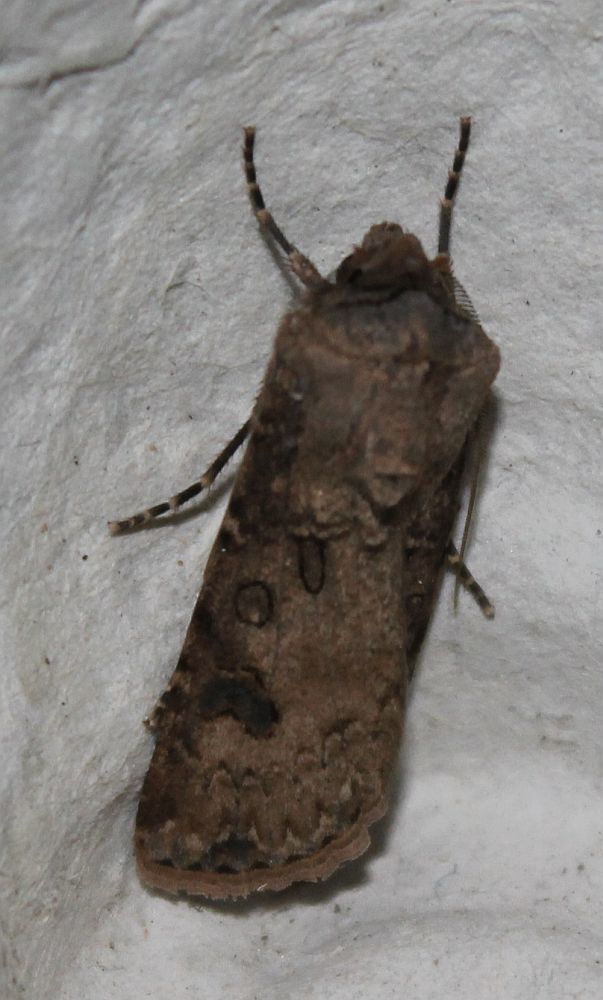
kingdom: Animalia
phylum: Arthropoda
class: Insecta
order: Lepidoptera
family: Noctuidae
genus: Agrotis
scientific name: Agrotis segetum
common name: Turnip moth
